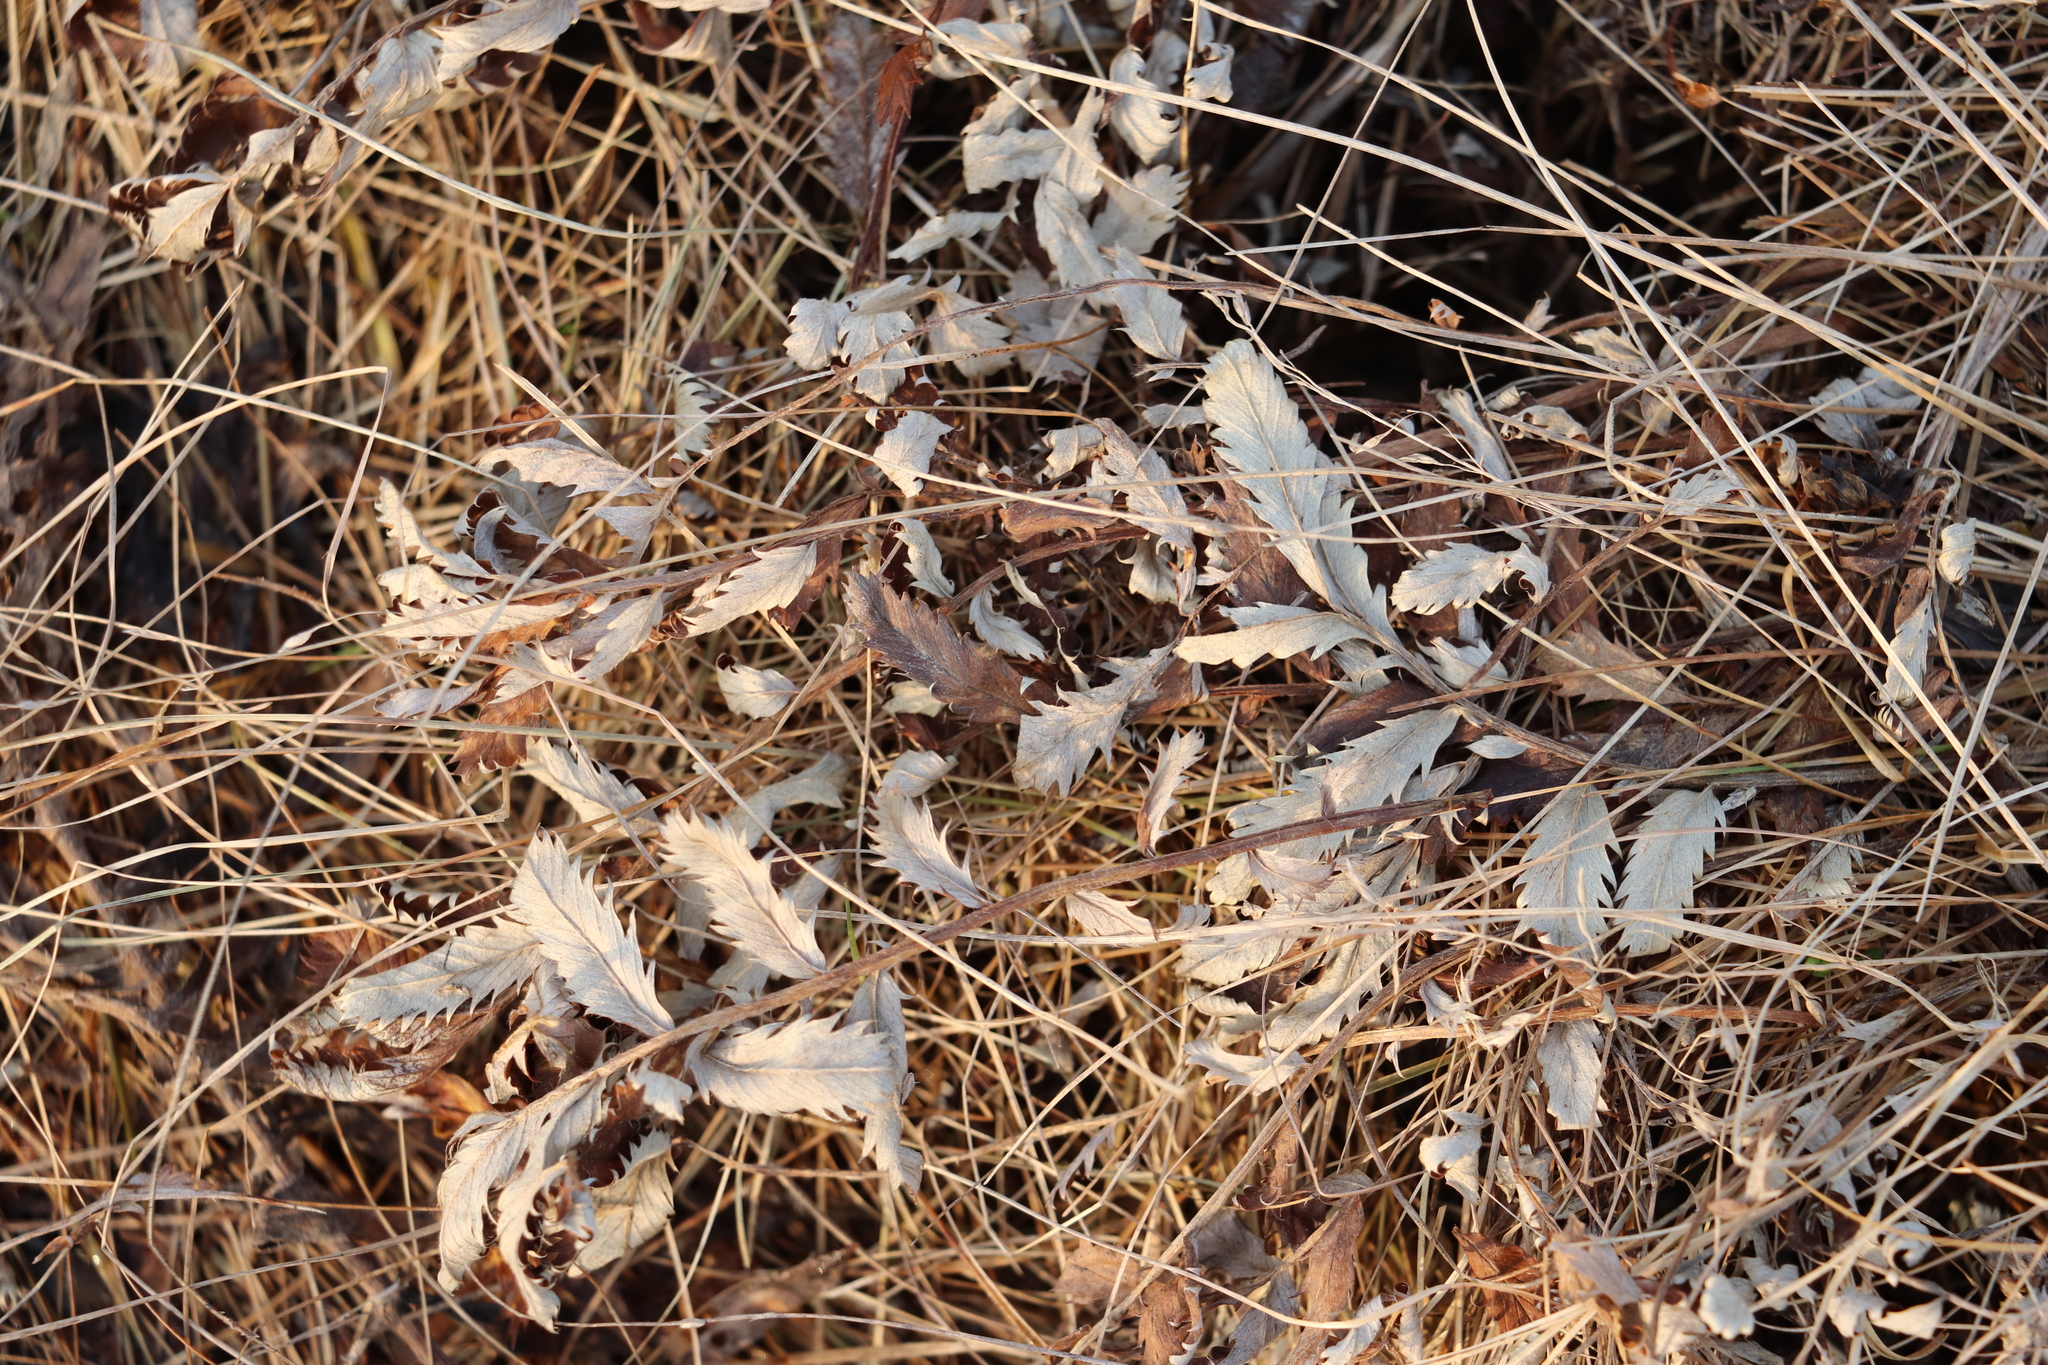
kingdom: Plantae
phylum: Tracheophyta
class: Magnoliopsida
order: Rosales
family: Rosaceae
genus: Argentina
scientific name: Argentina anserina
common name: Common silverweed
